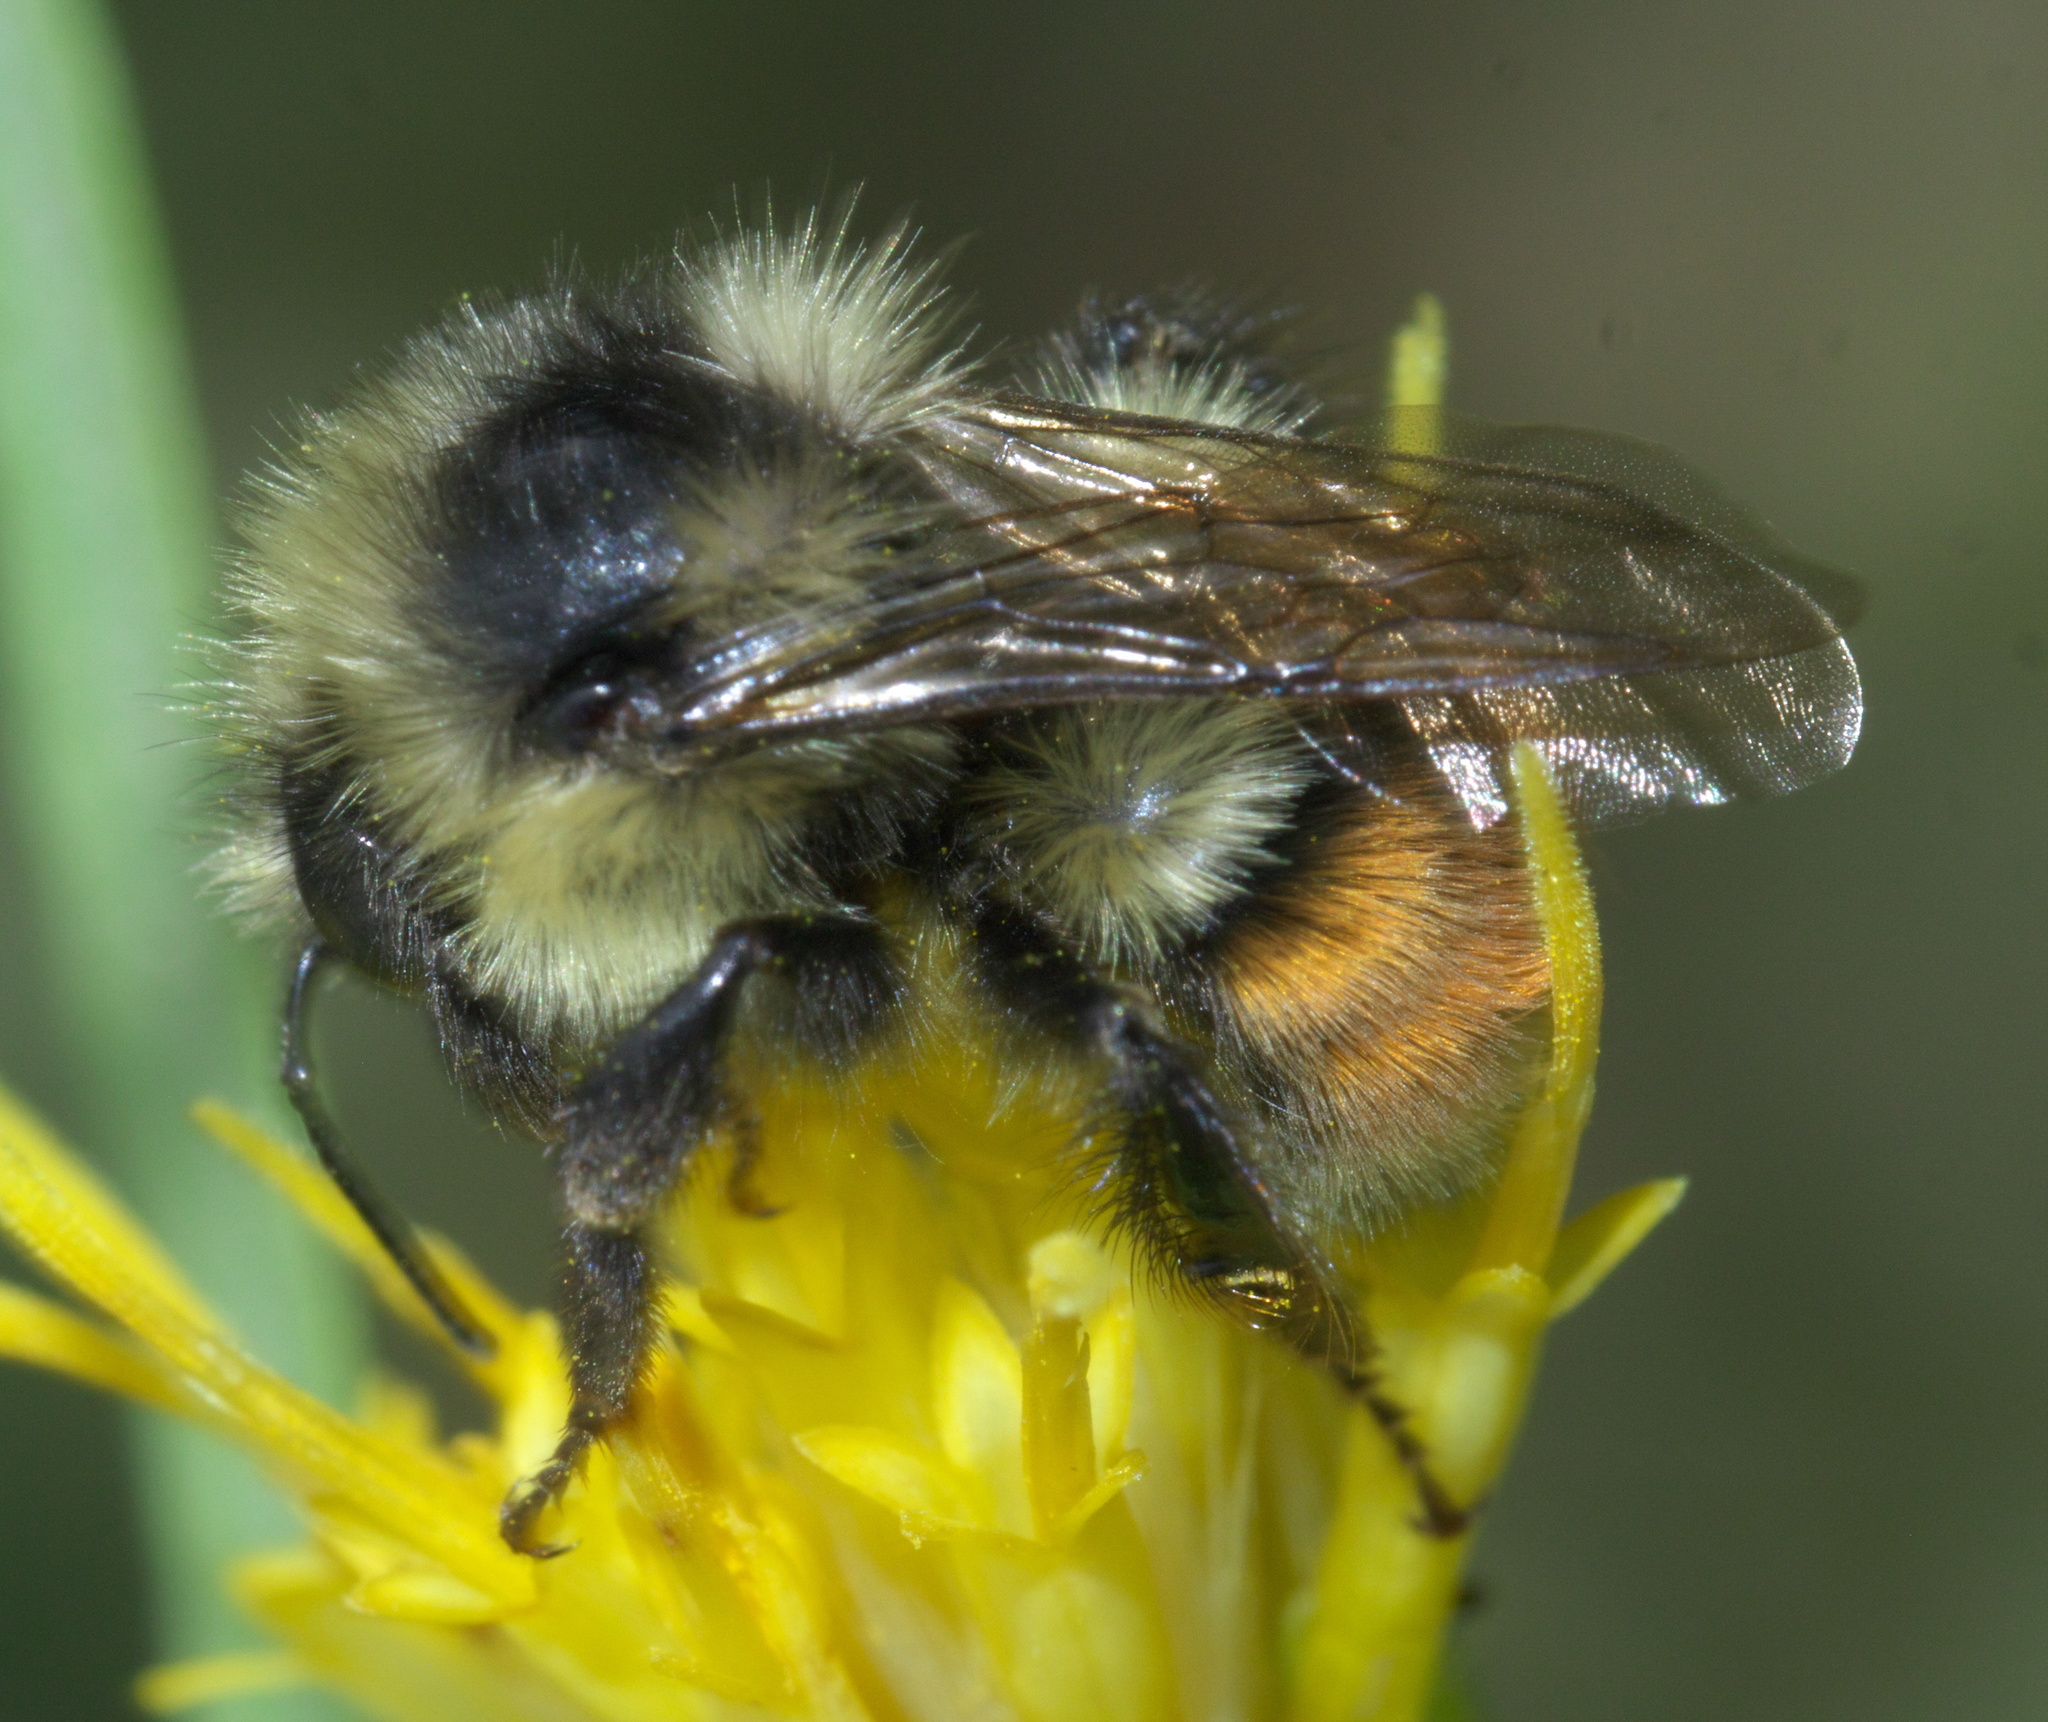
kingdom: Animalia
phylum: Arthropoda
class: Insecta
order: Hymenoptera
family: Apidae
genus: Bombus
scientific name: Bombus bifarius
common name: Two form bumble bee
